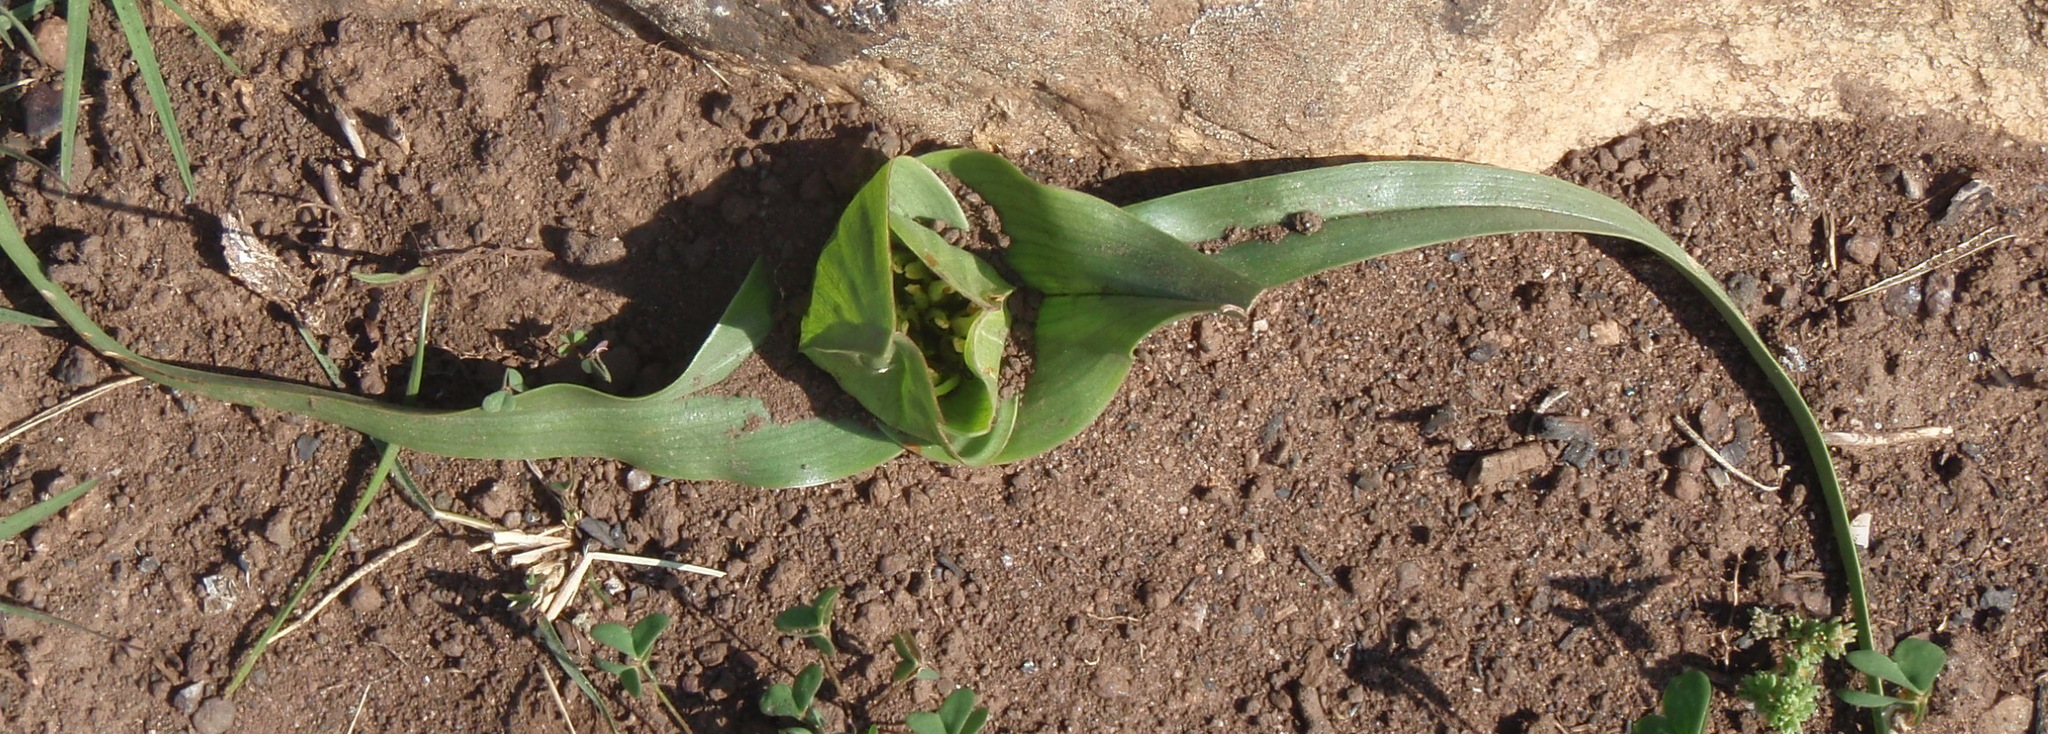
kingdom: Plantae
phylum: Tracheophyta
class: Liliopsida
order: Liliales
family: Colchicaceae
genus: Colchicum
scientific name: Colchicum eucomoides
